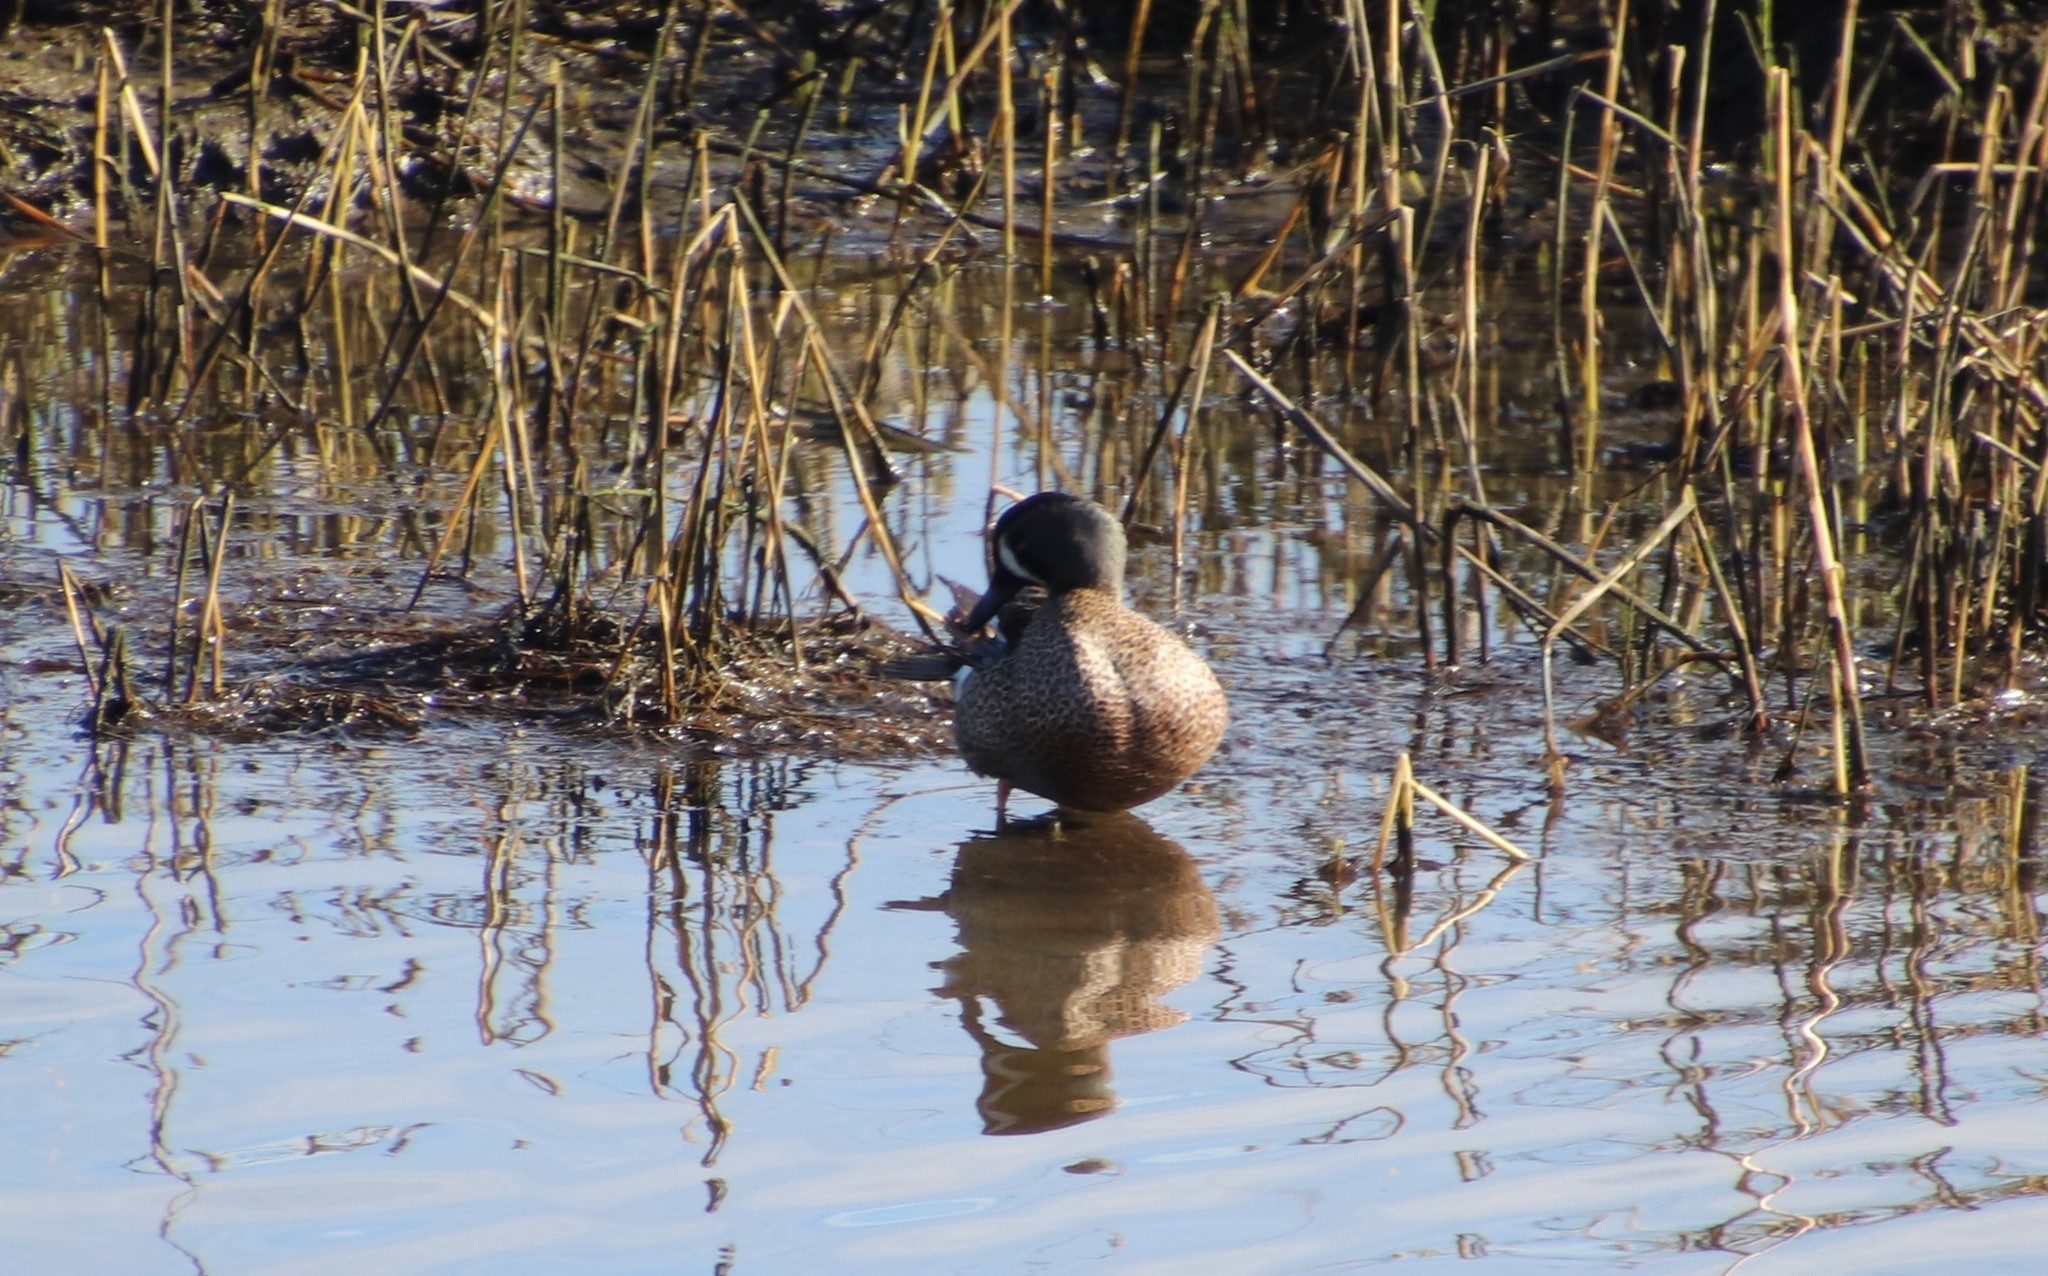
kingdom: Animalia
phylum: Chordata
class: Aves
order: Anseriformes
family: Anatidae
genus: Spatula
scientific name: Spatula discors
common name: Blue-winged teal
